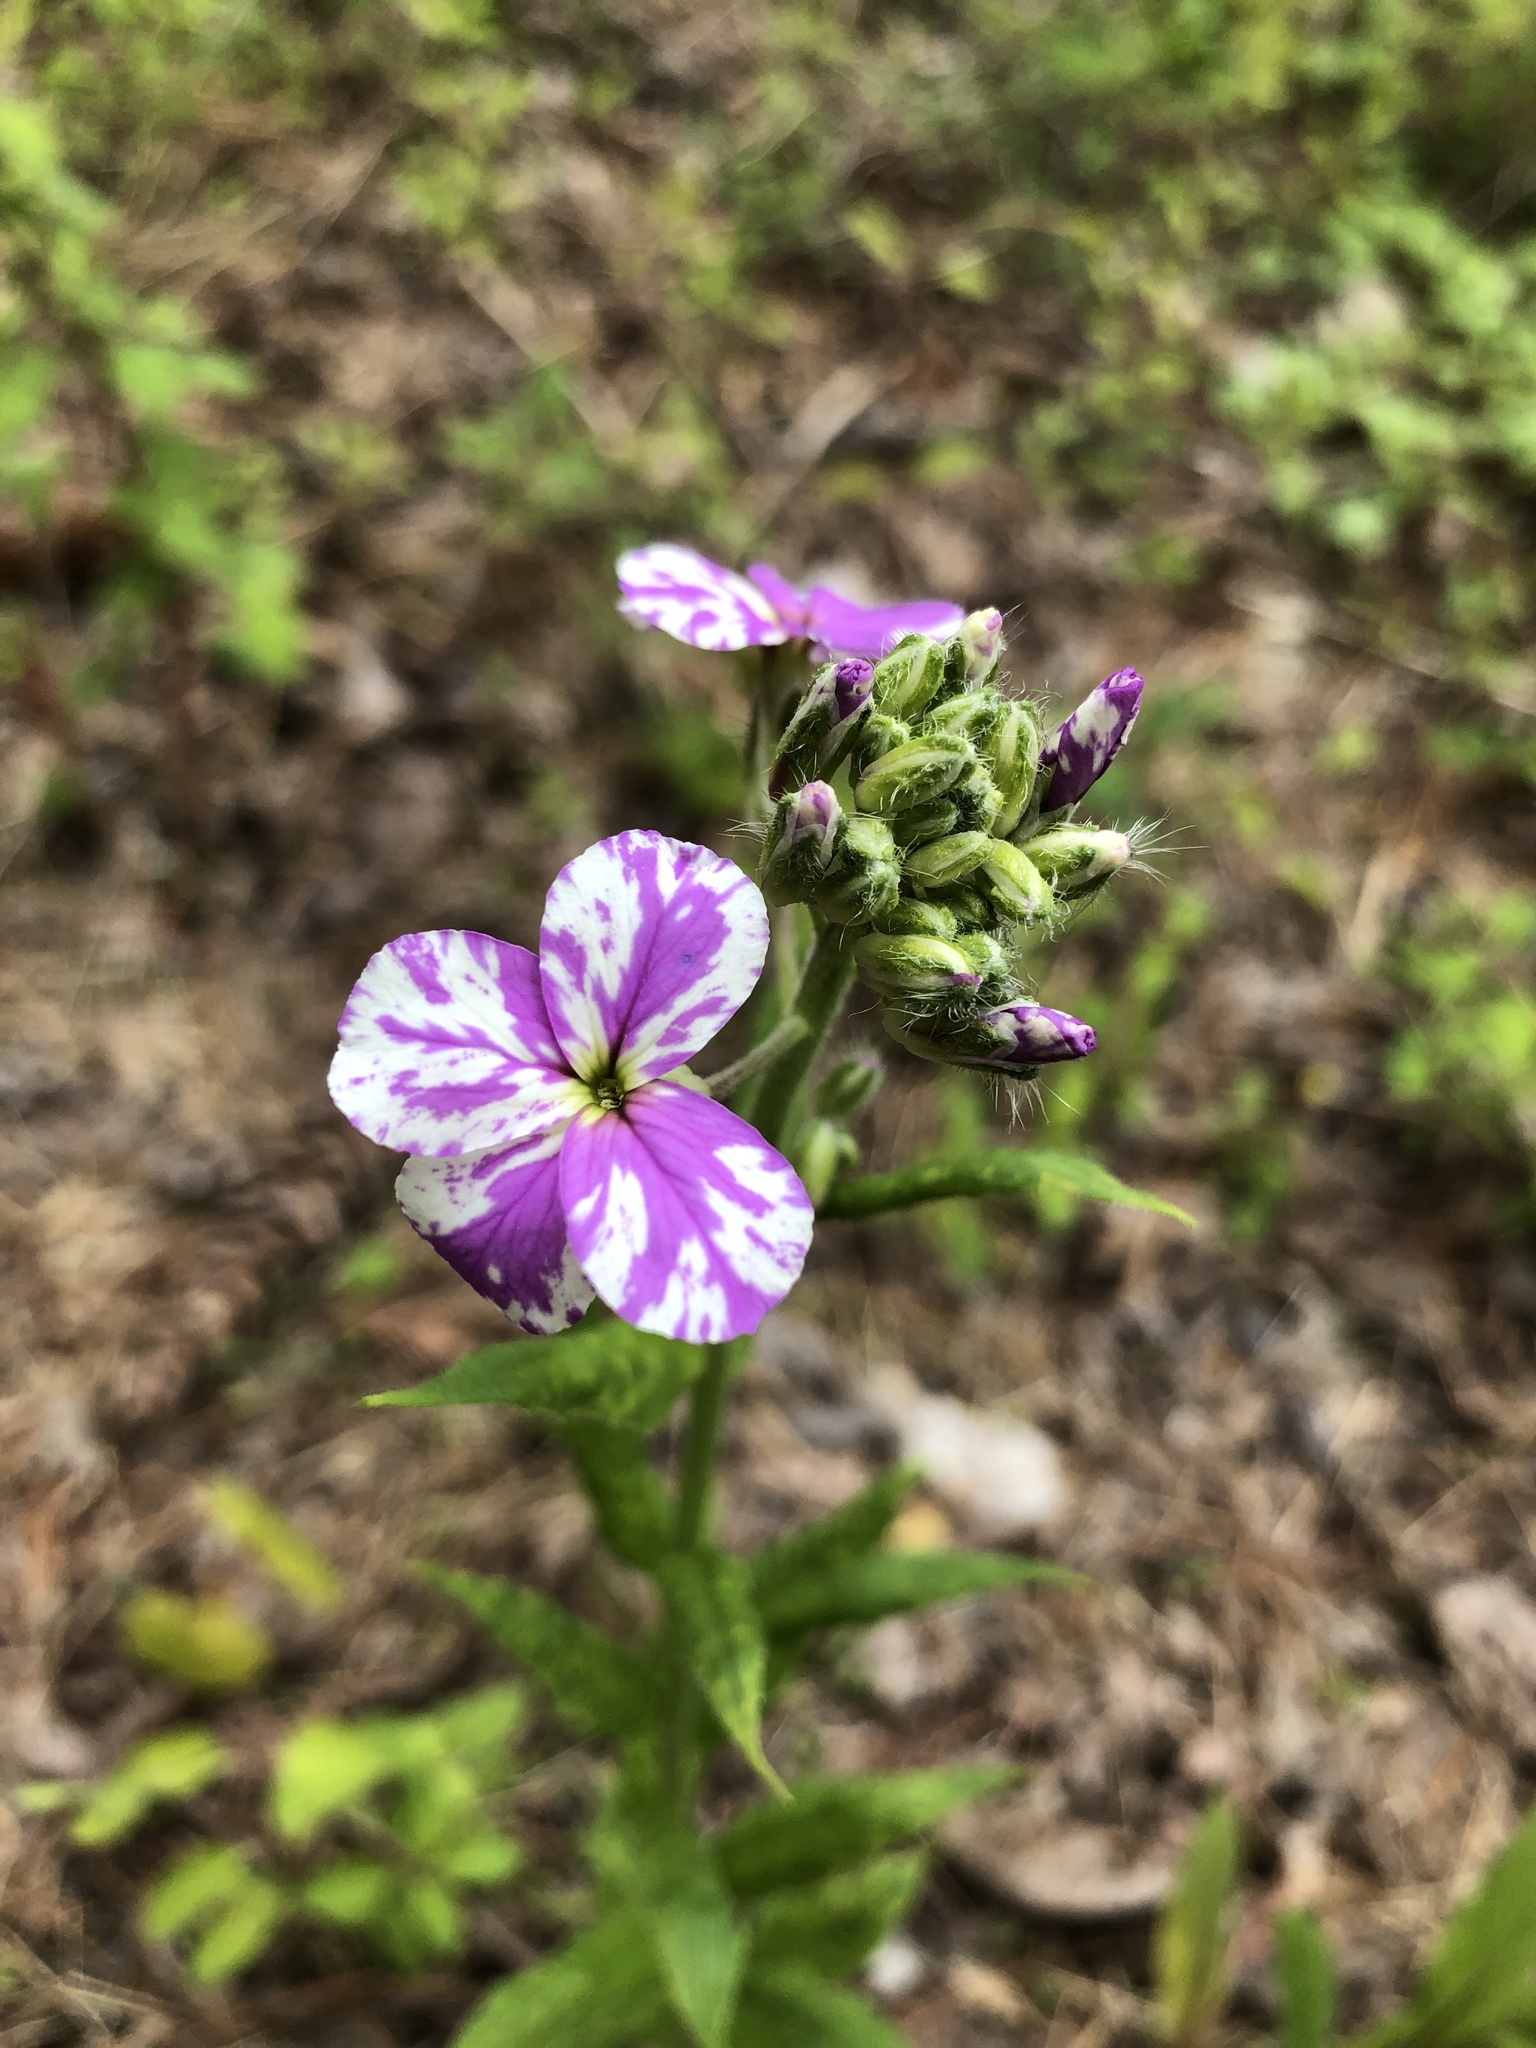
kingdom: Plantae
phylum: Tracheophyta
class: Magnoliopsida
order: Brassicales
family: Brassicaceae
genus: Hesperis
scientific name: Hesperis matronalis
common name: Dame's-violet
